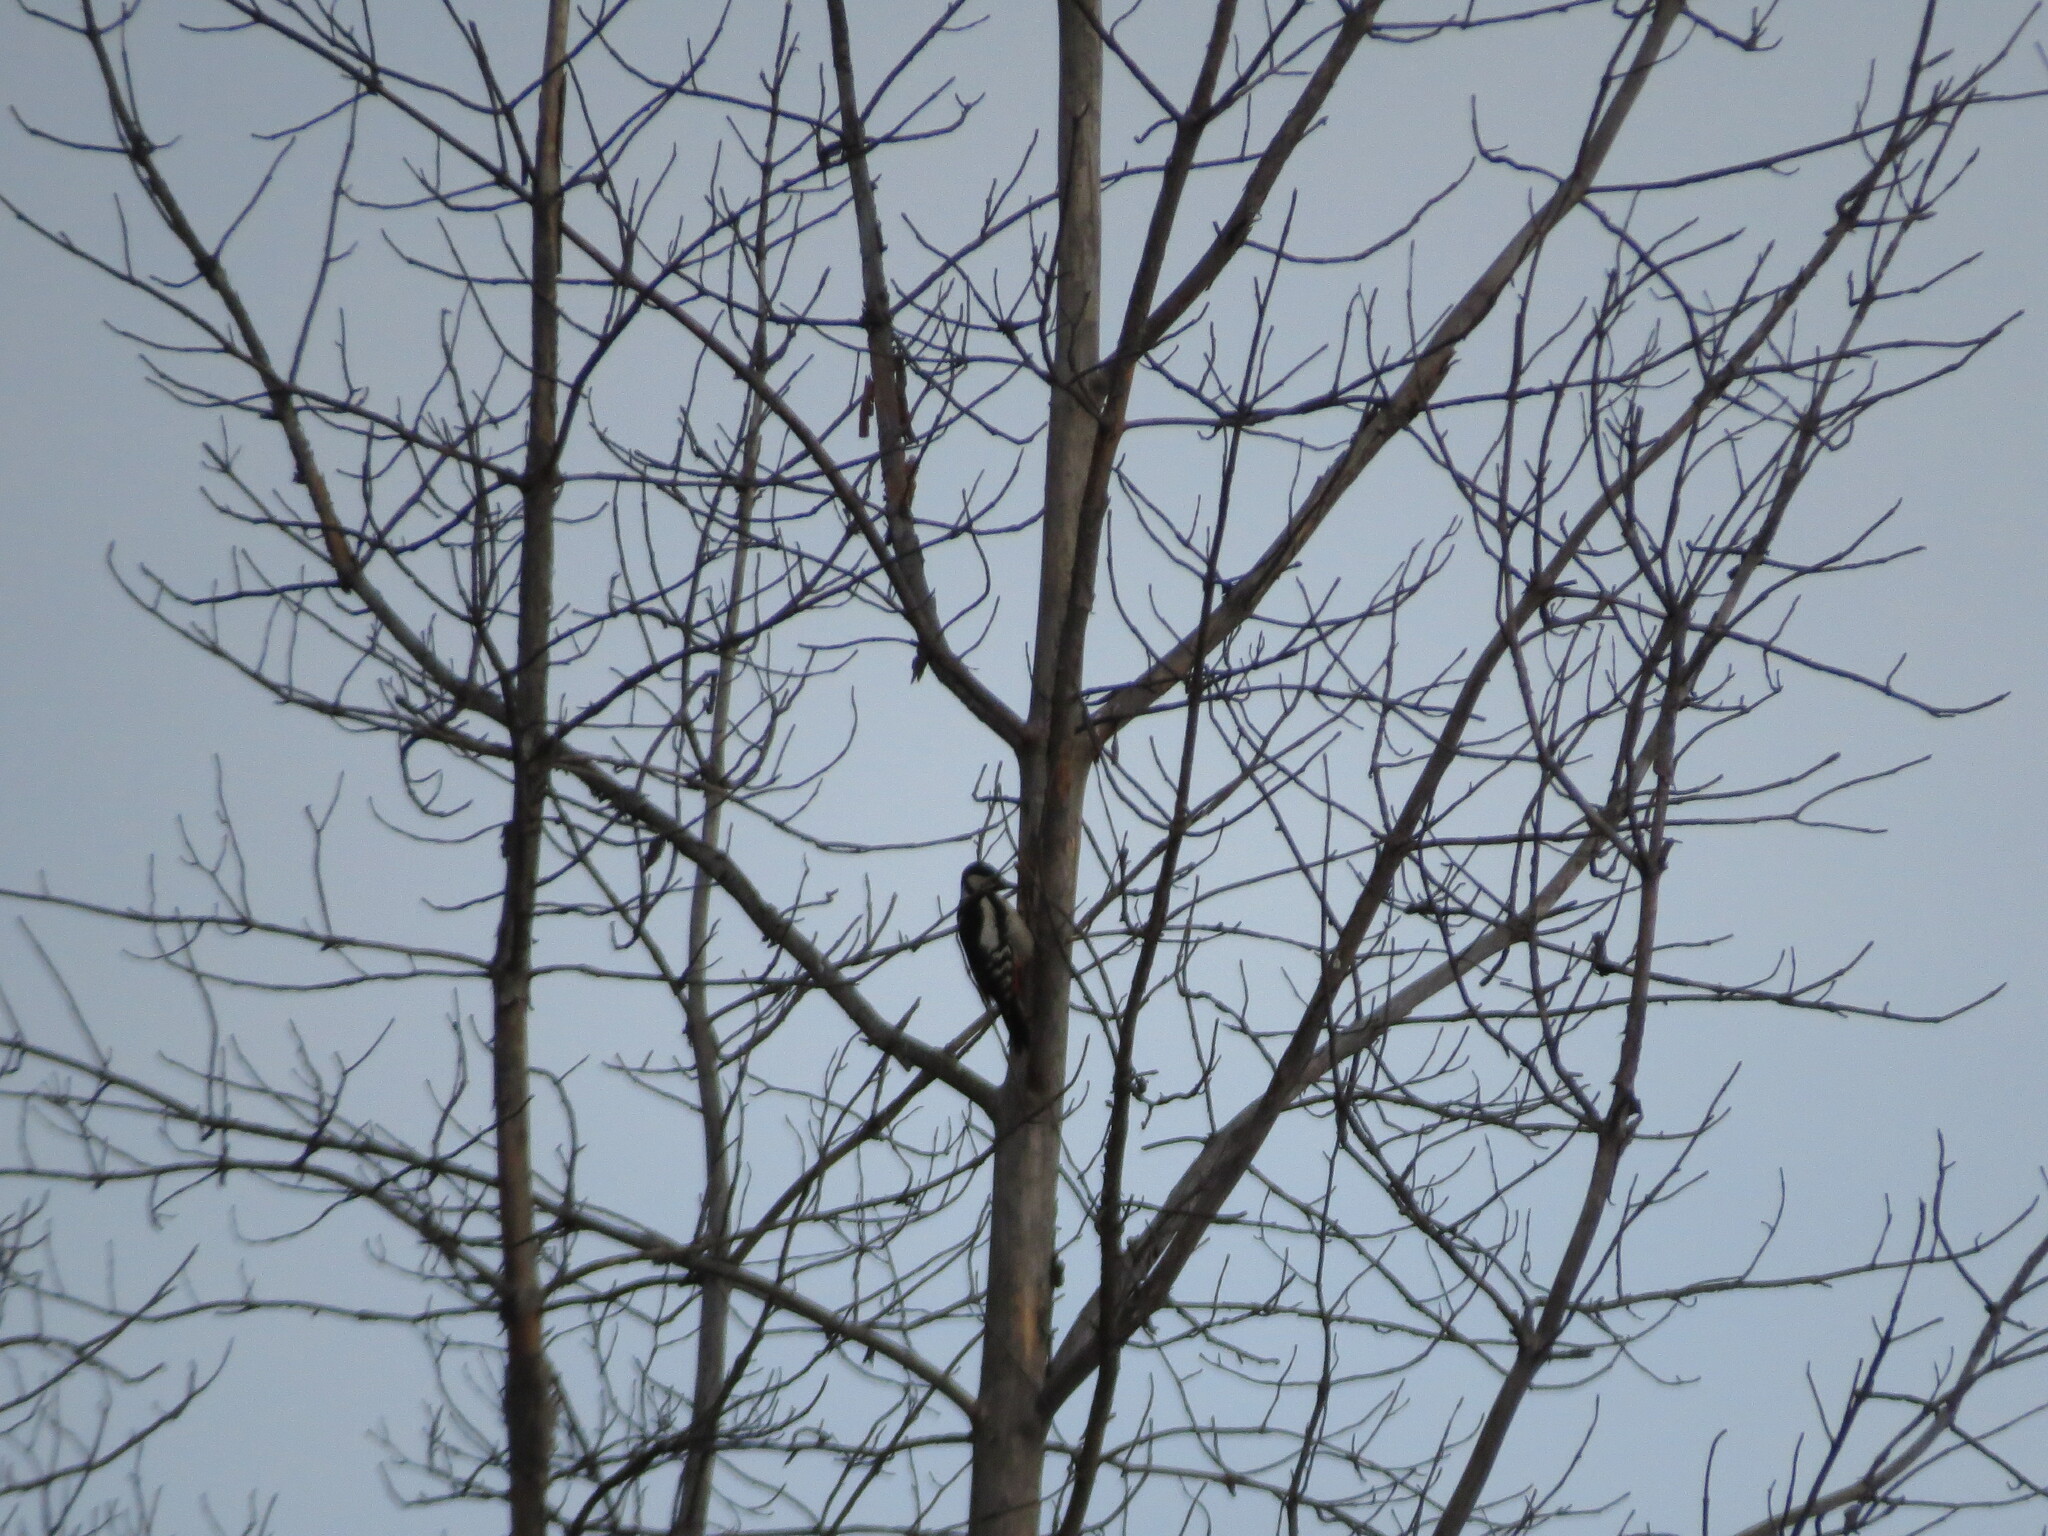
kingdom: Animalia
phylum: Chordata
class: Aves
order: Piciformes
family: Picidae
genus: Dendrocopos
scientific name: Dendrocopos major
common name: Great spotted woodpecker
